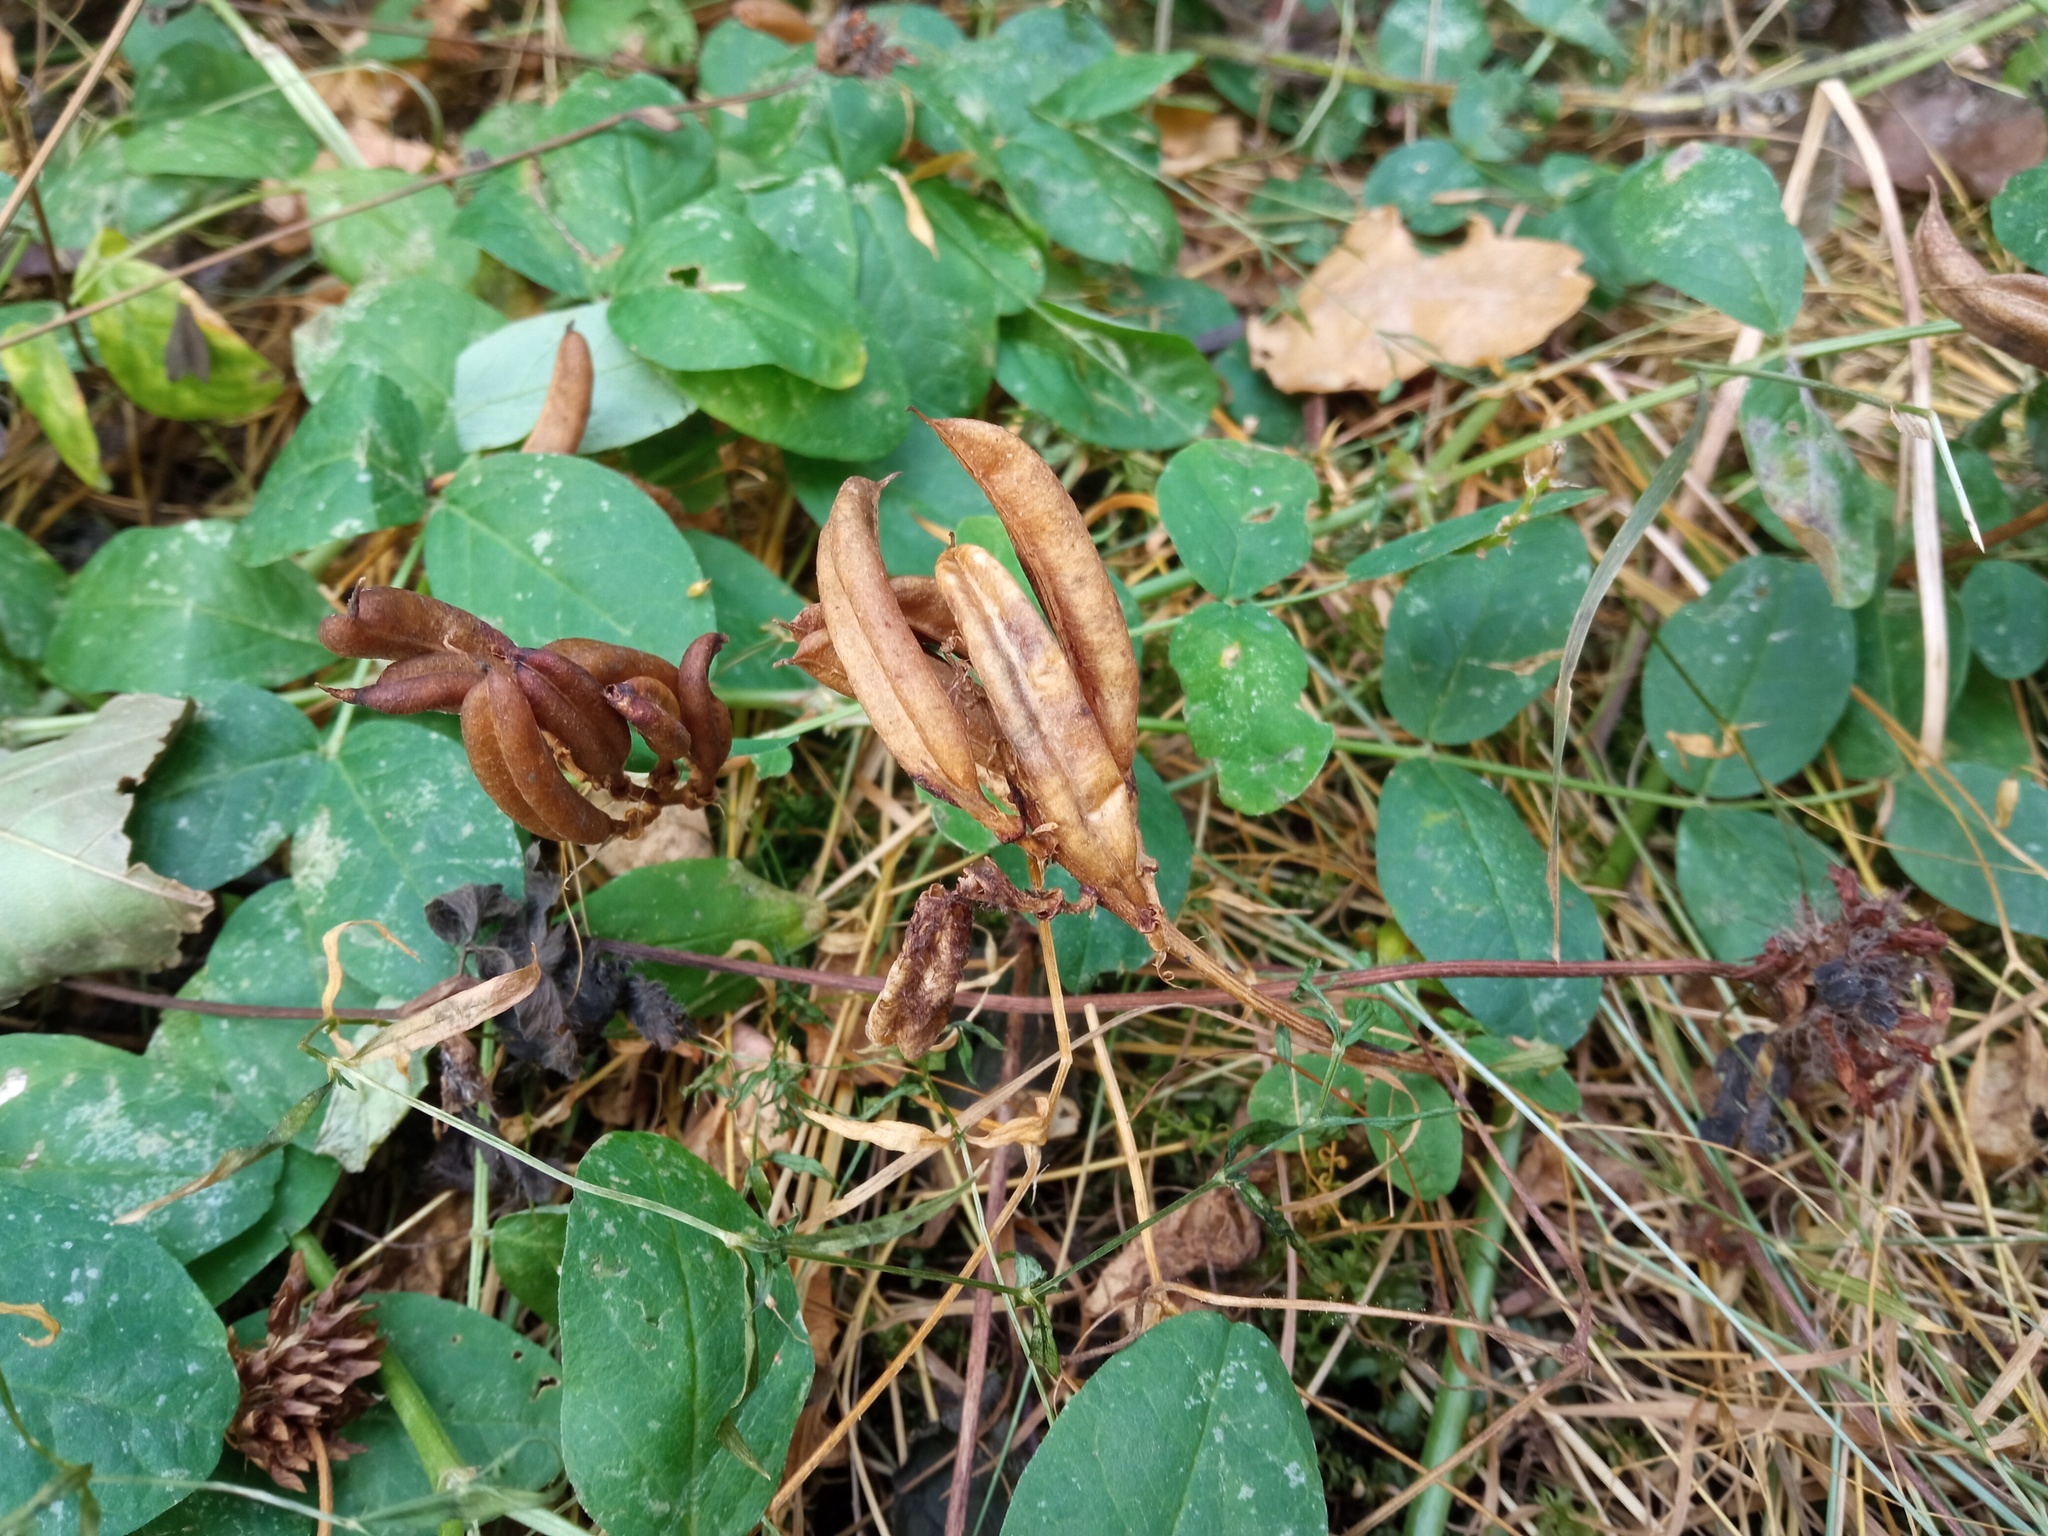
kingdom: Plantae
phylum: Tracheophyta
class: Magnoliopsida
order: Fabales
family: Fabaceae
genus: Astragalus
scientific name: Astragalus glycyphyllos
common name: Wild liquorice
